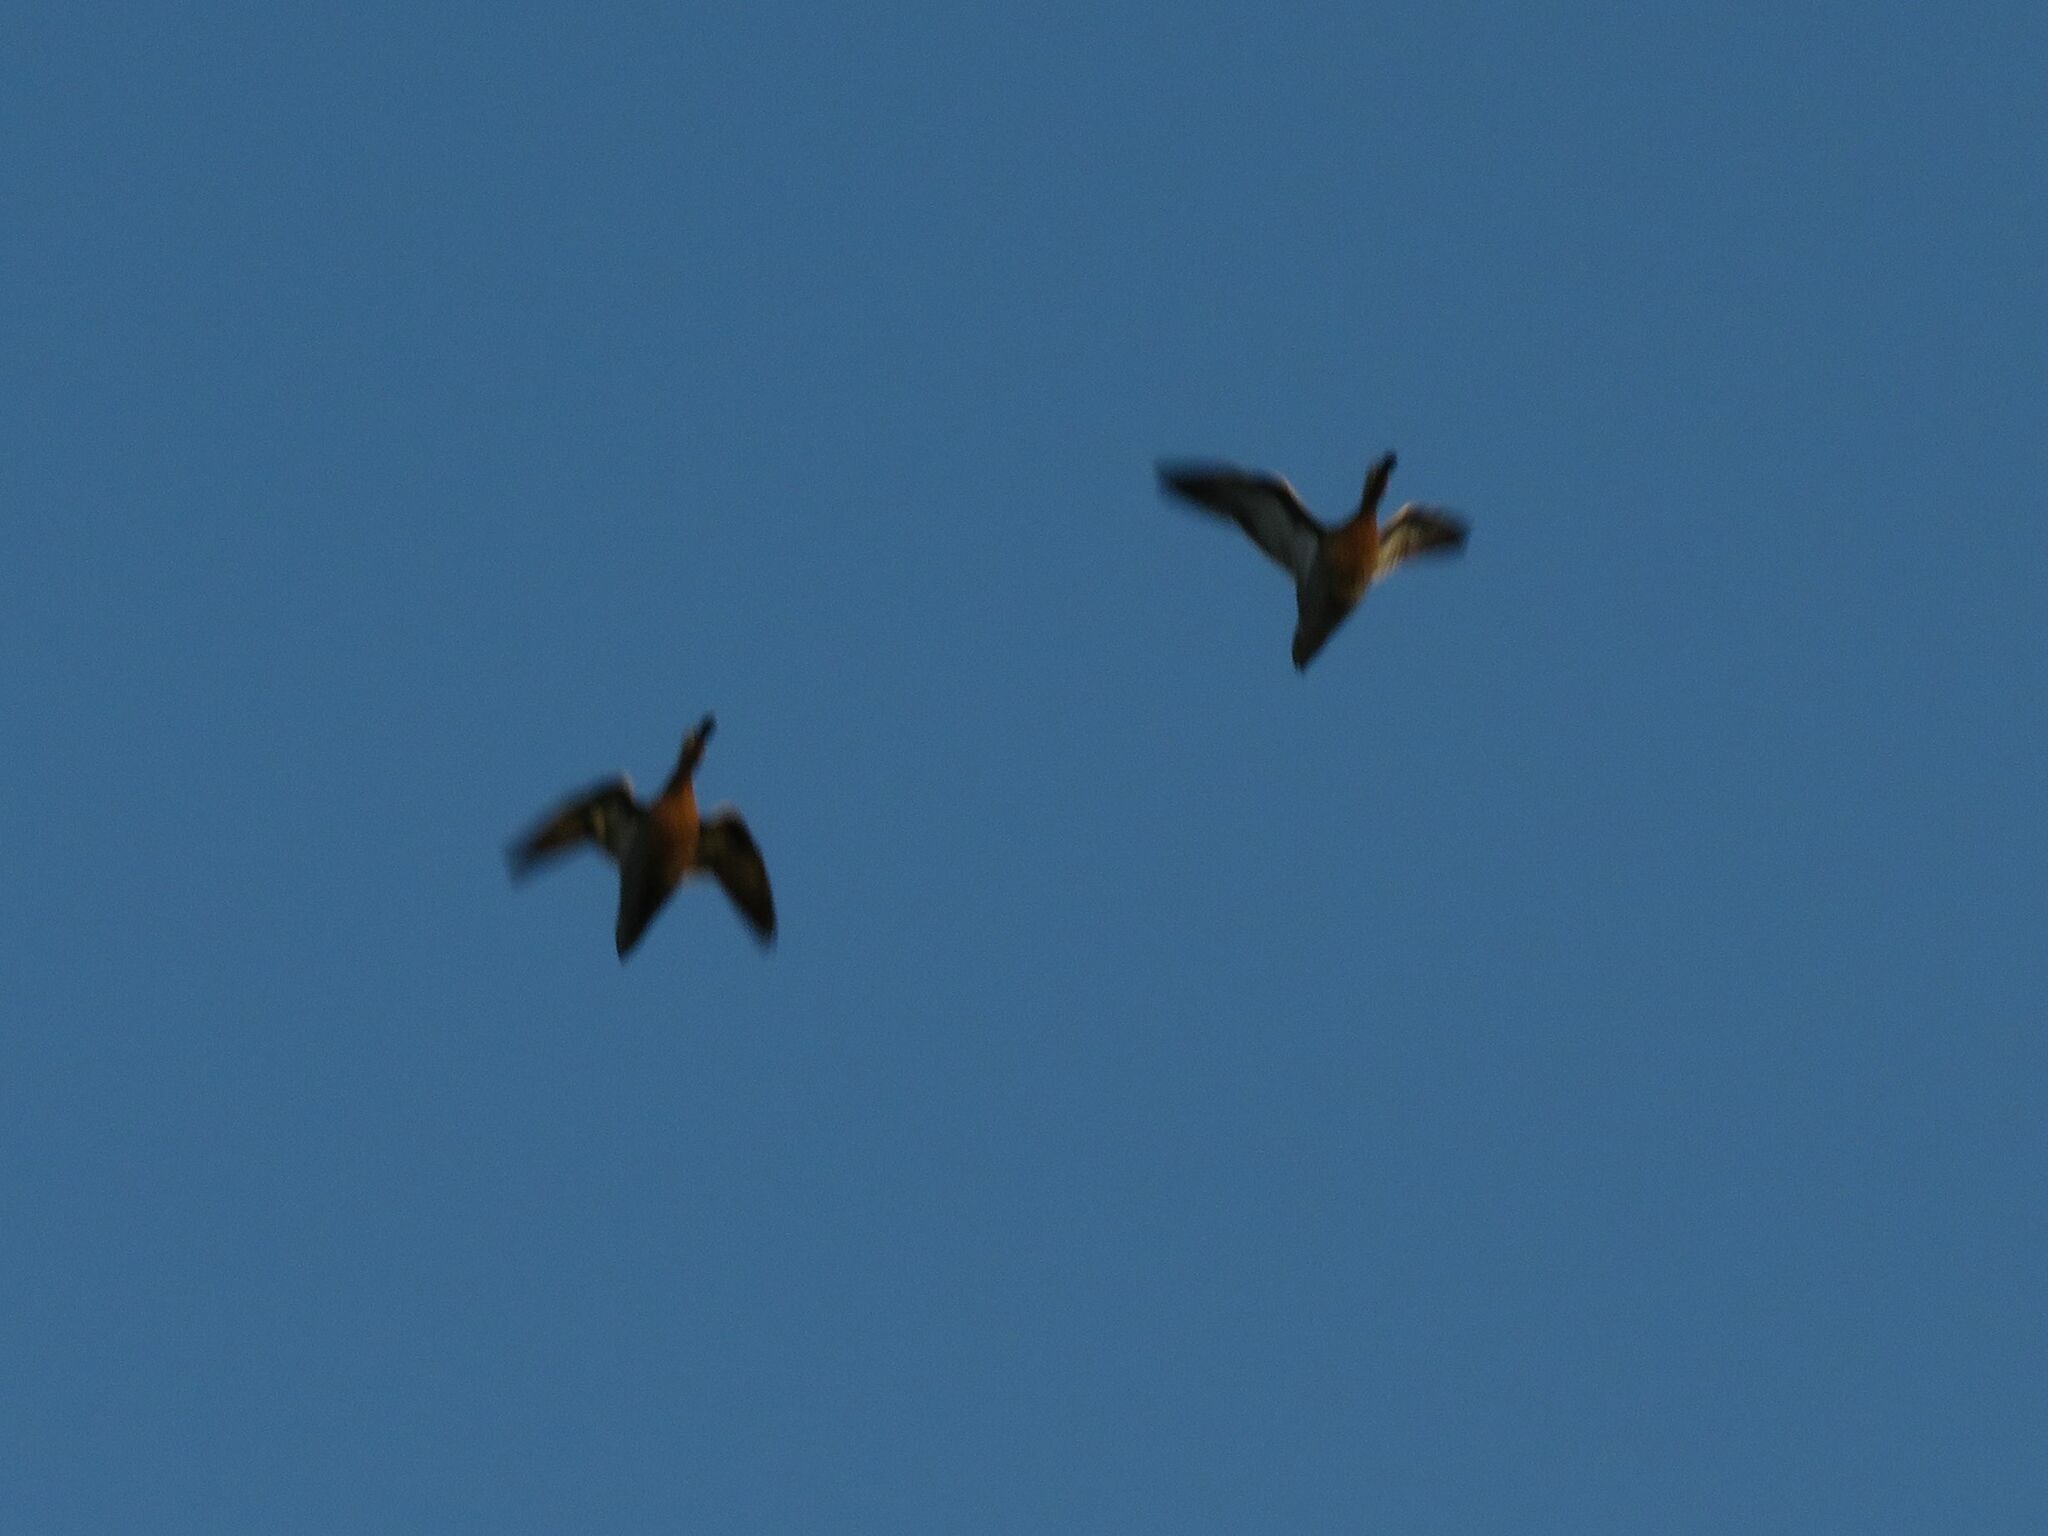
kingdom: Animalia
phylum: Chordata
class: Aves
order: Anseriformes
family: Anatidae
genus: Spatula
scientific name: Spatula cyanoptera
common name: Cinnamon teal
